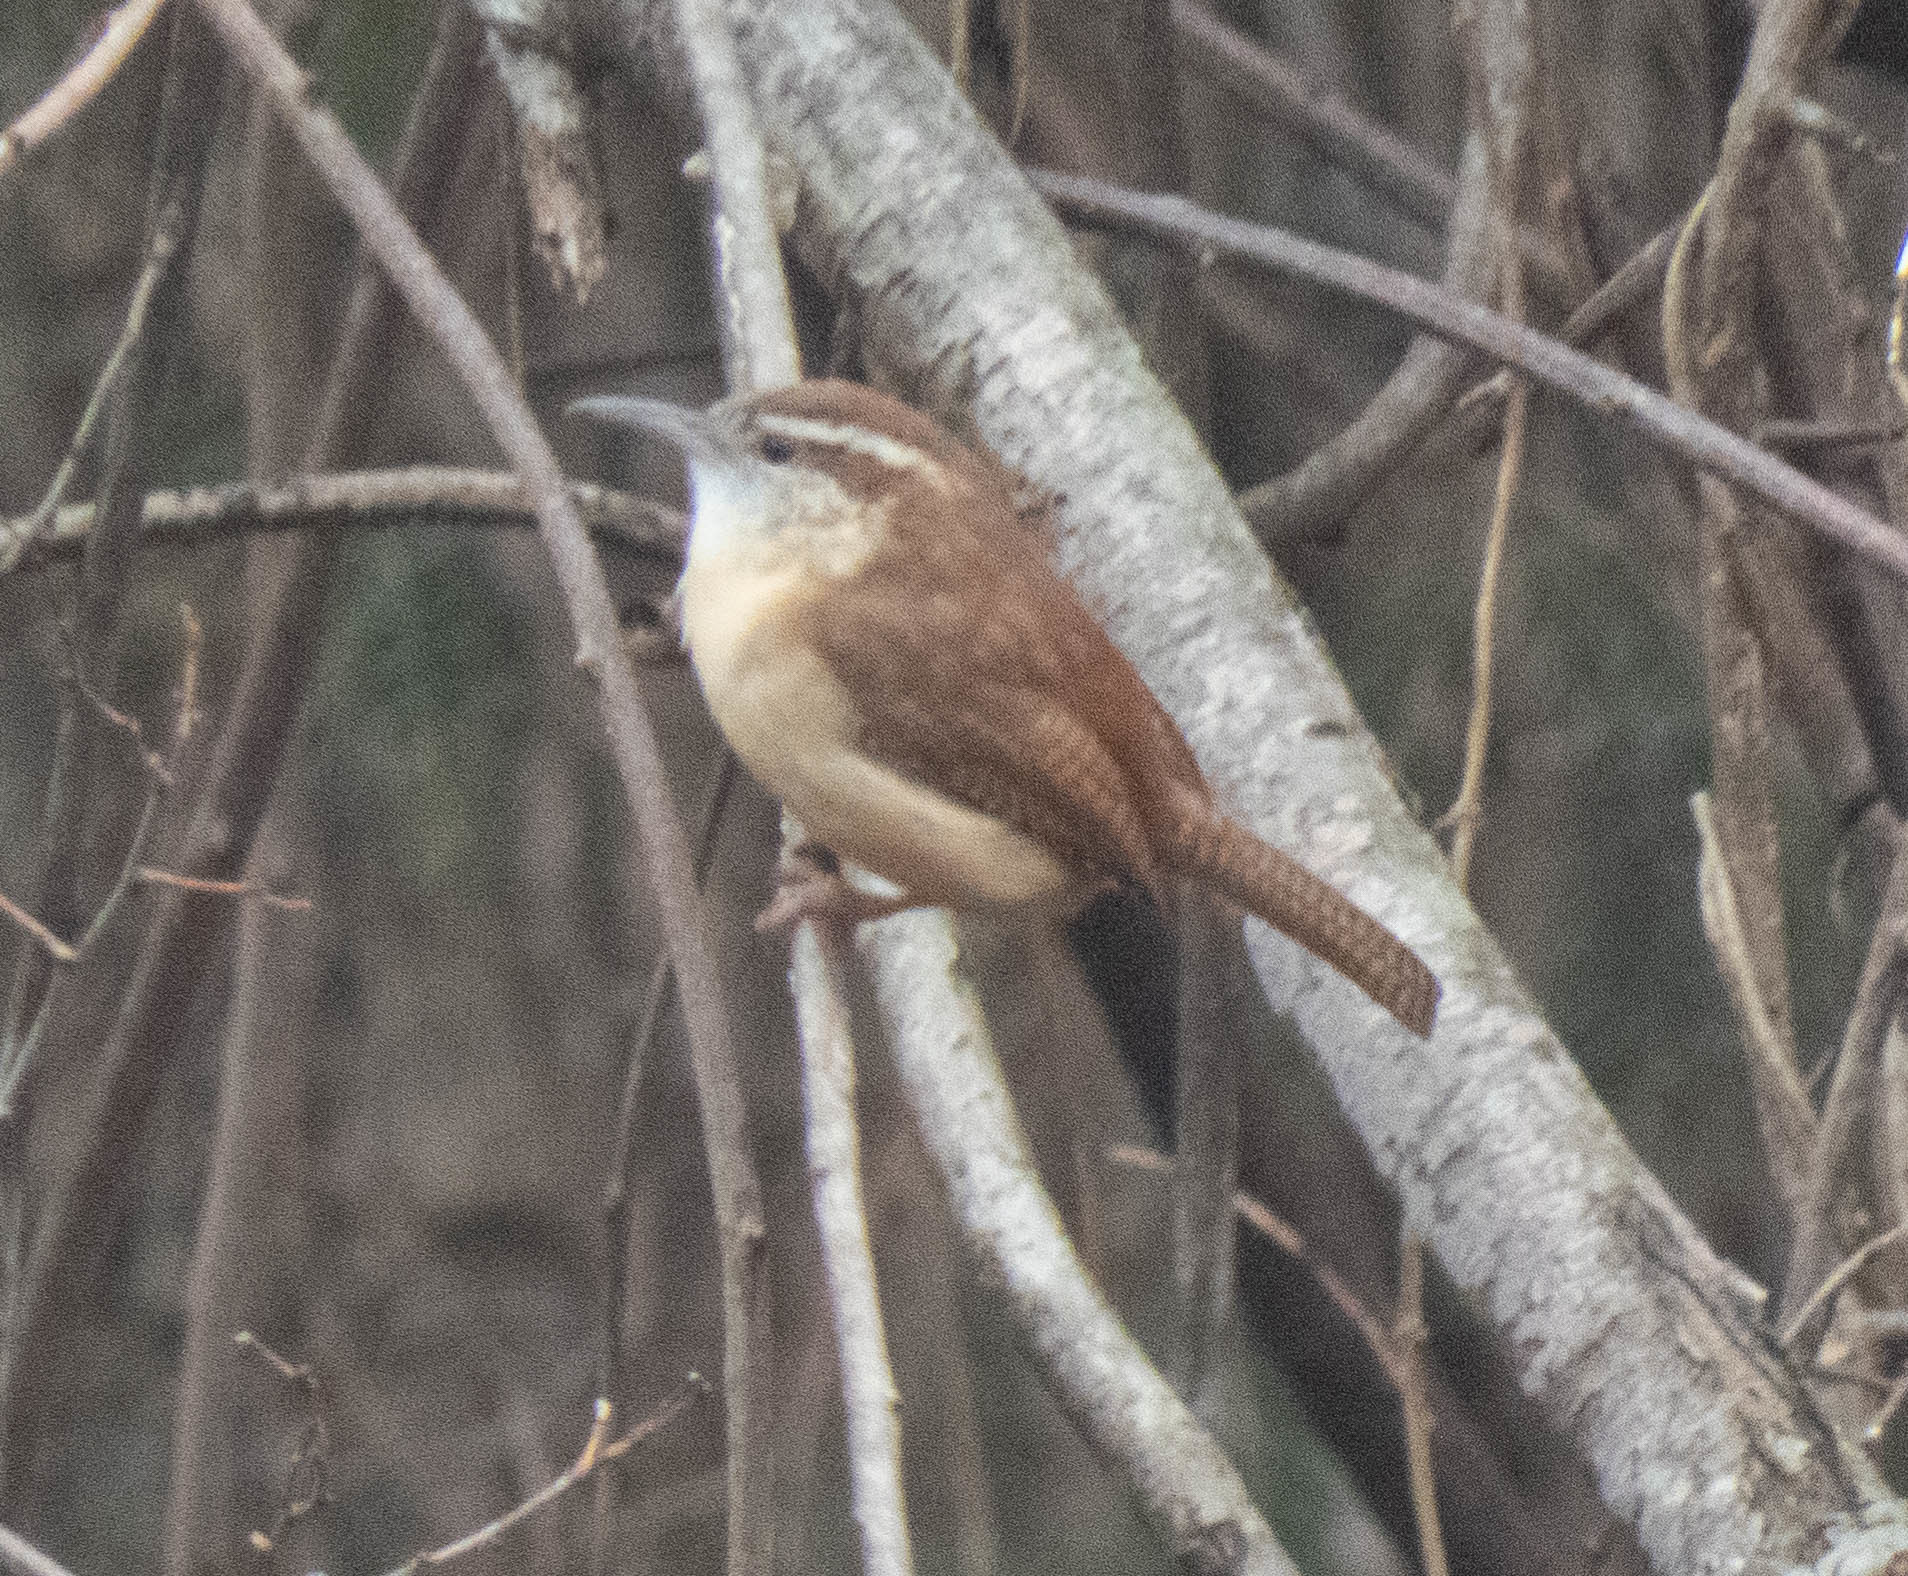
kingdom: Animalia
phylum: Chordata
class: Aves
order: Passeriformes
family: Troglodytidae
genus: Thryothorus
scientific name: Thryothorus ludovicianus
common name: Carolina wren
